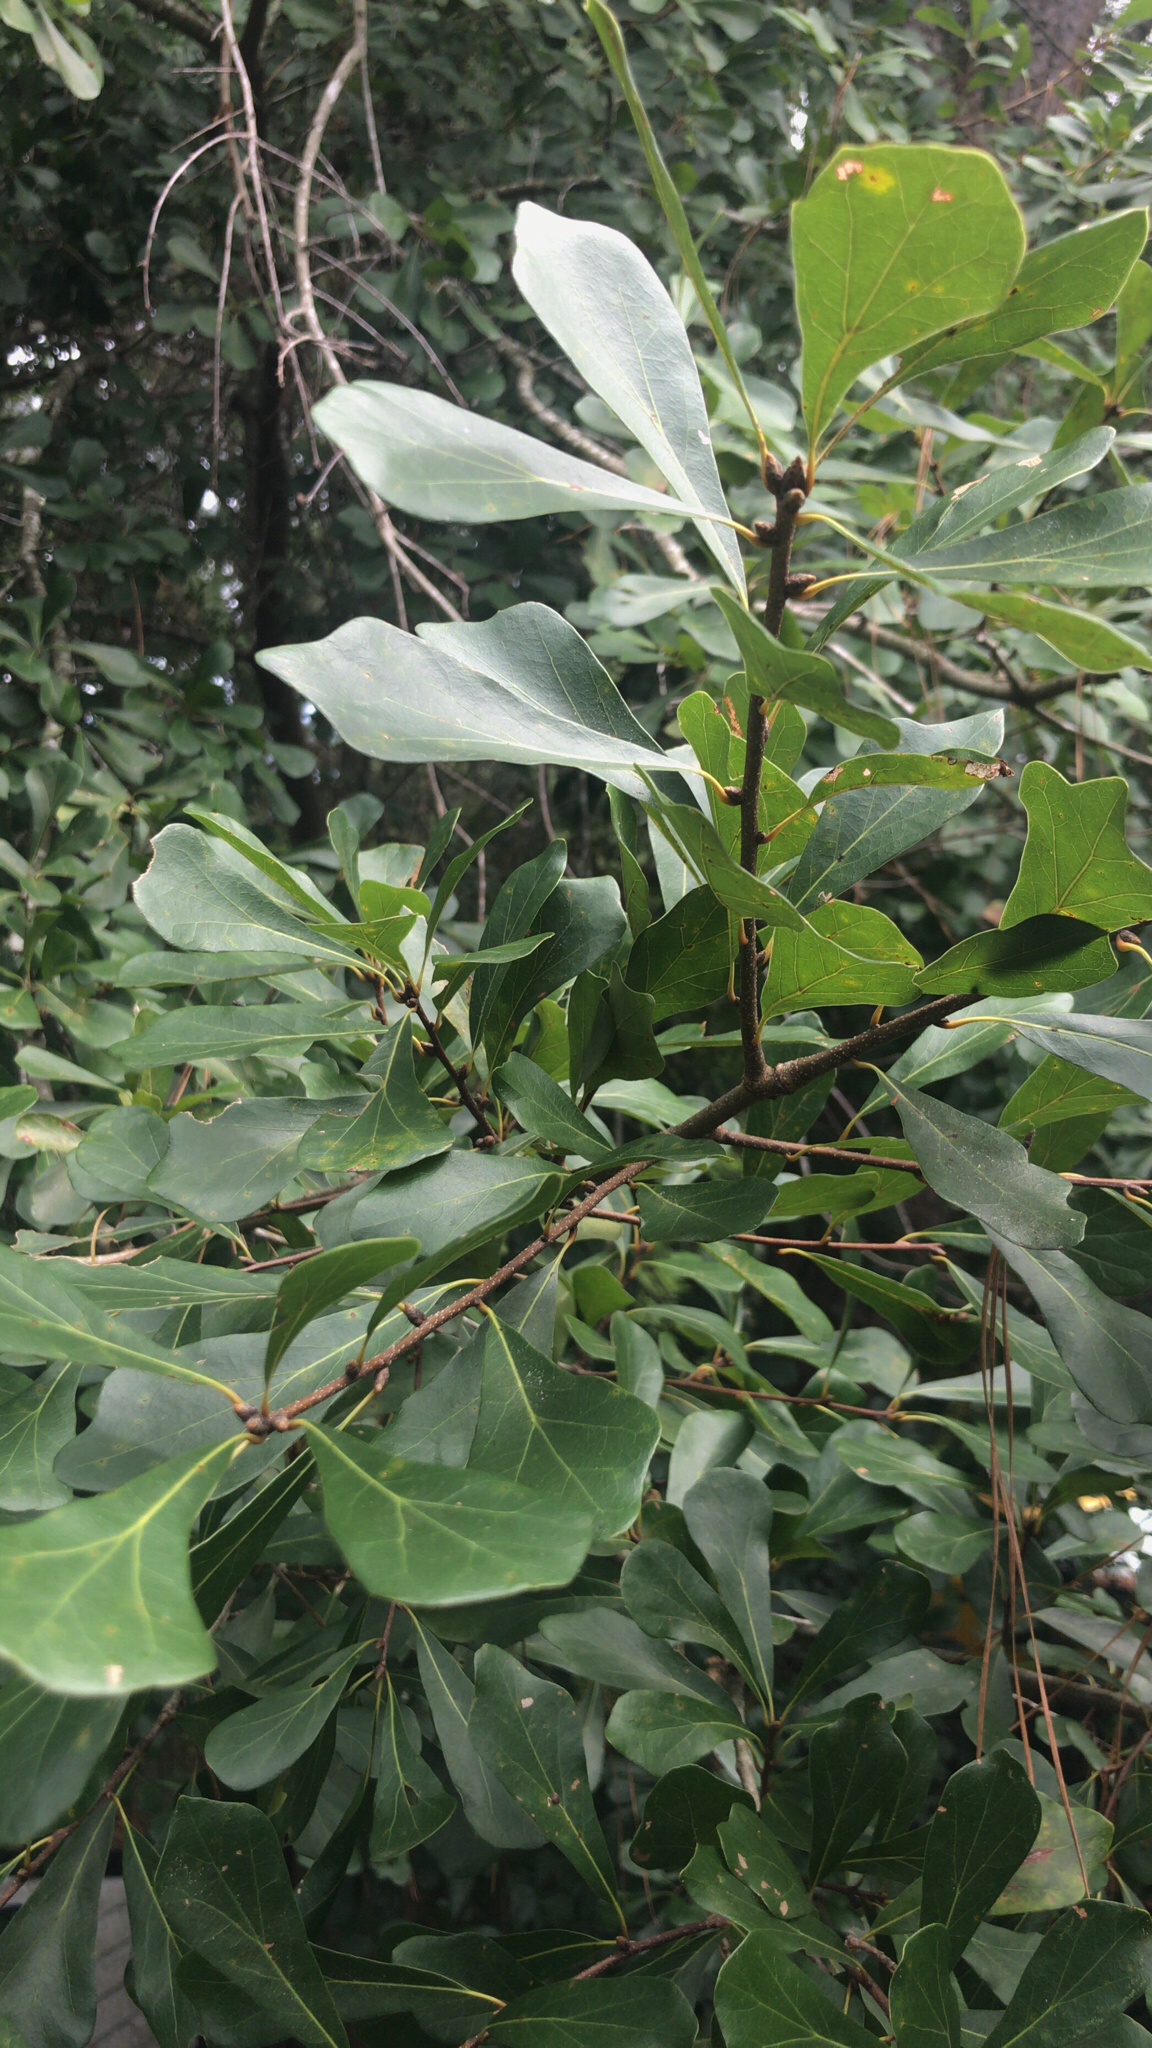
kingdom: Plantae
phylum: Tracheophyta
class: Magnoliopsida
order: Fagales
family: Fagaceae
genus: Quercus
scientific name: Quercus nigra
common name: Water oak
